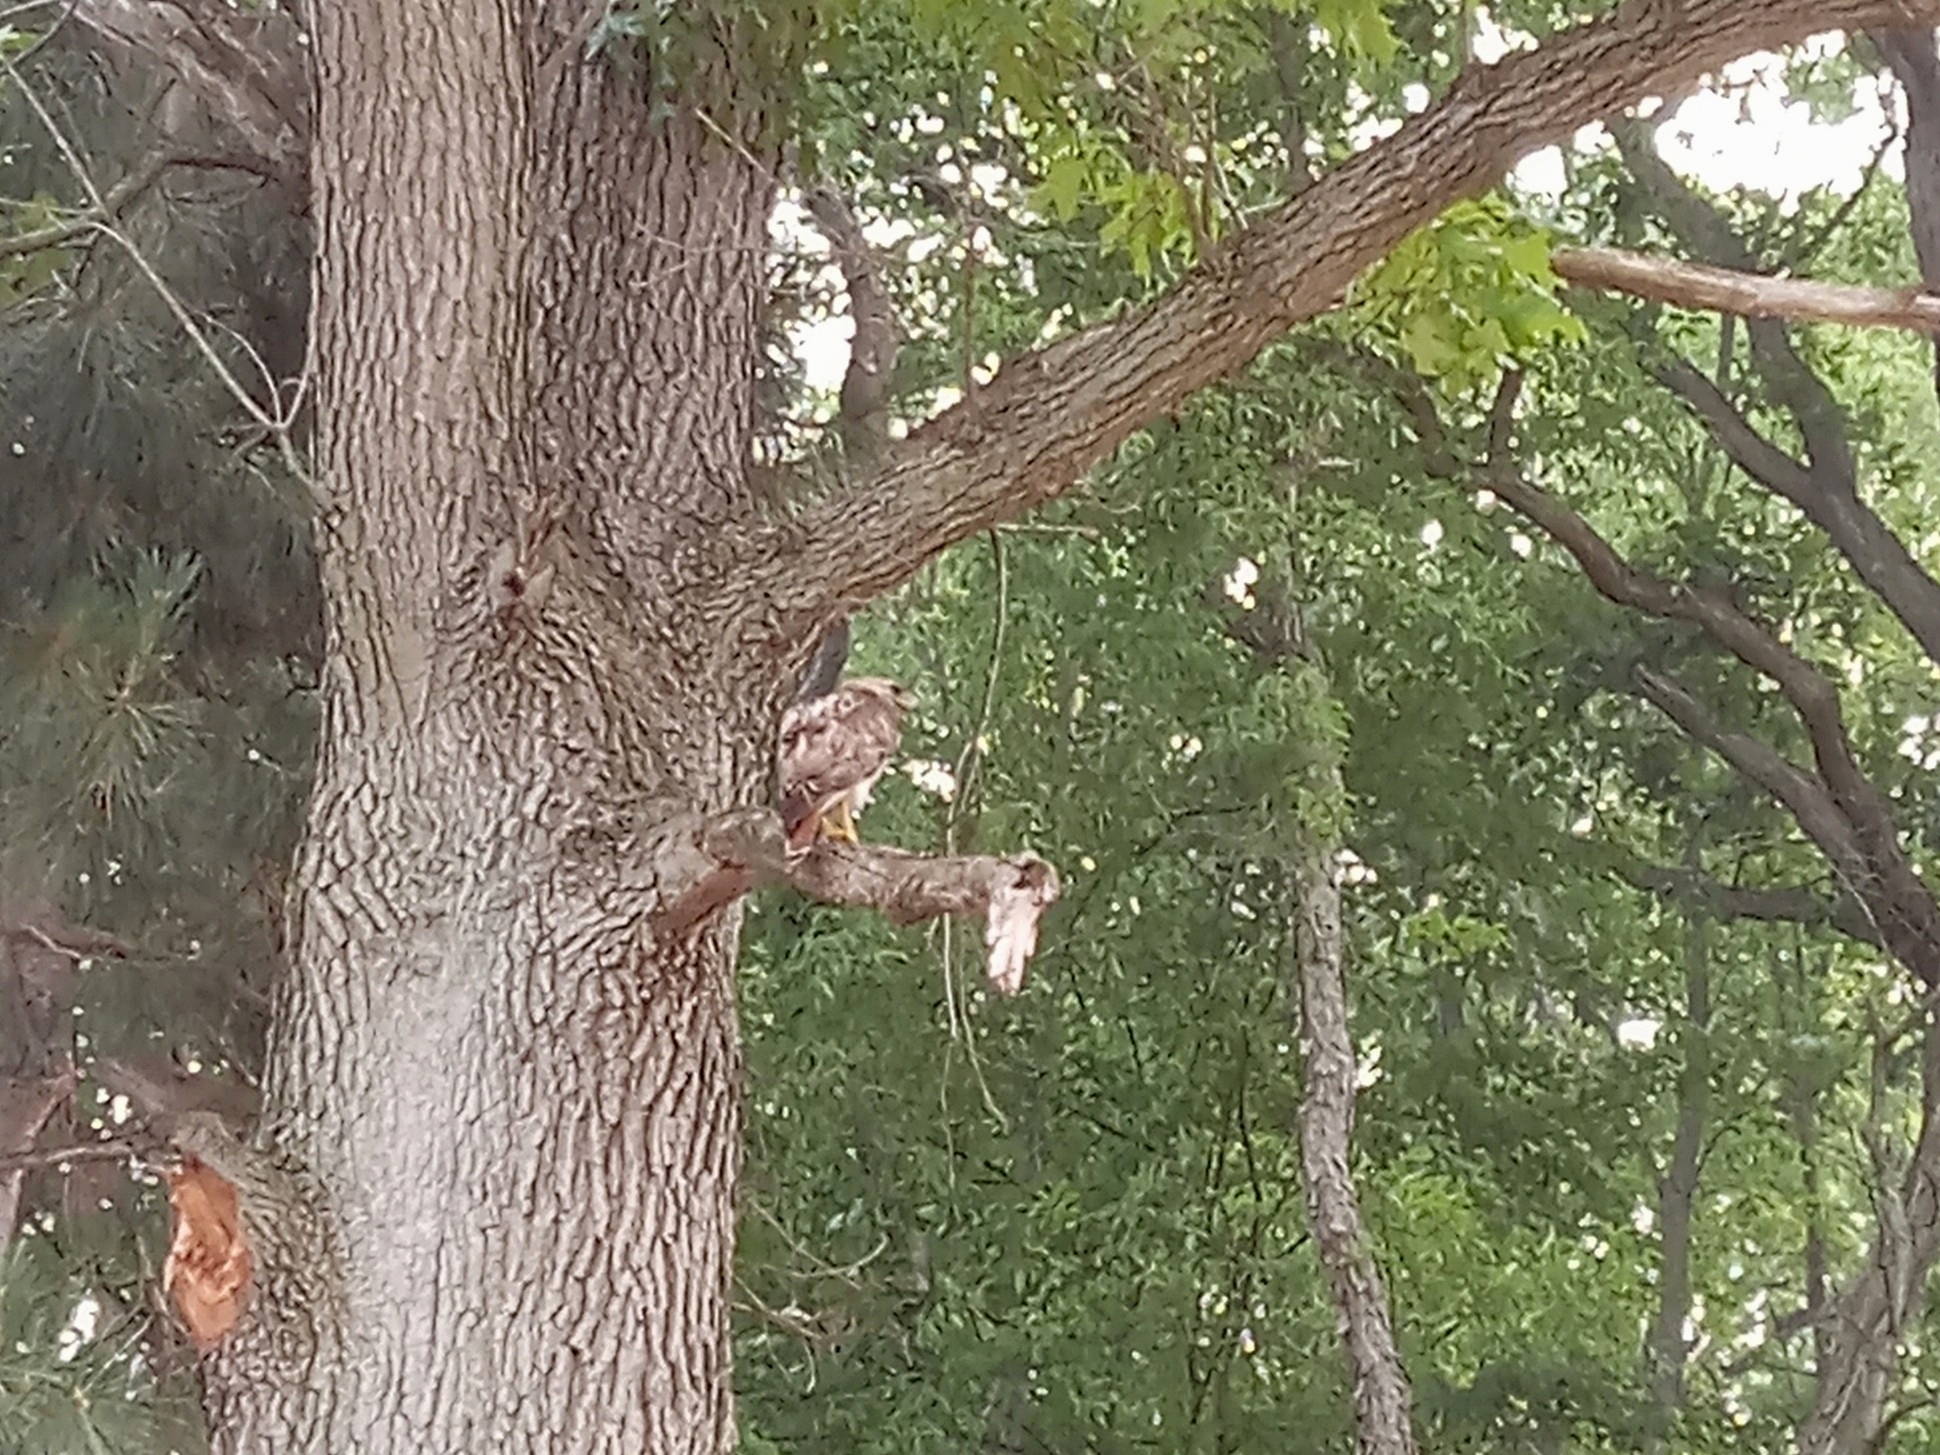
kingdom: Animalia
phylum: Chordata
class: Aves
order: Accipitriformes
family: Accipitridae
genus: Buteo
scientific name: Buteo jamaicensis
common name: Red-tailed hawk
